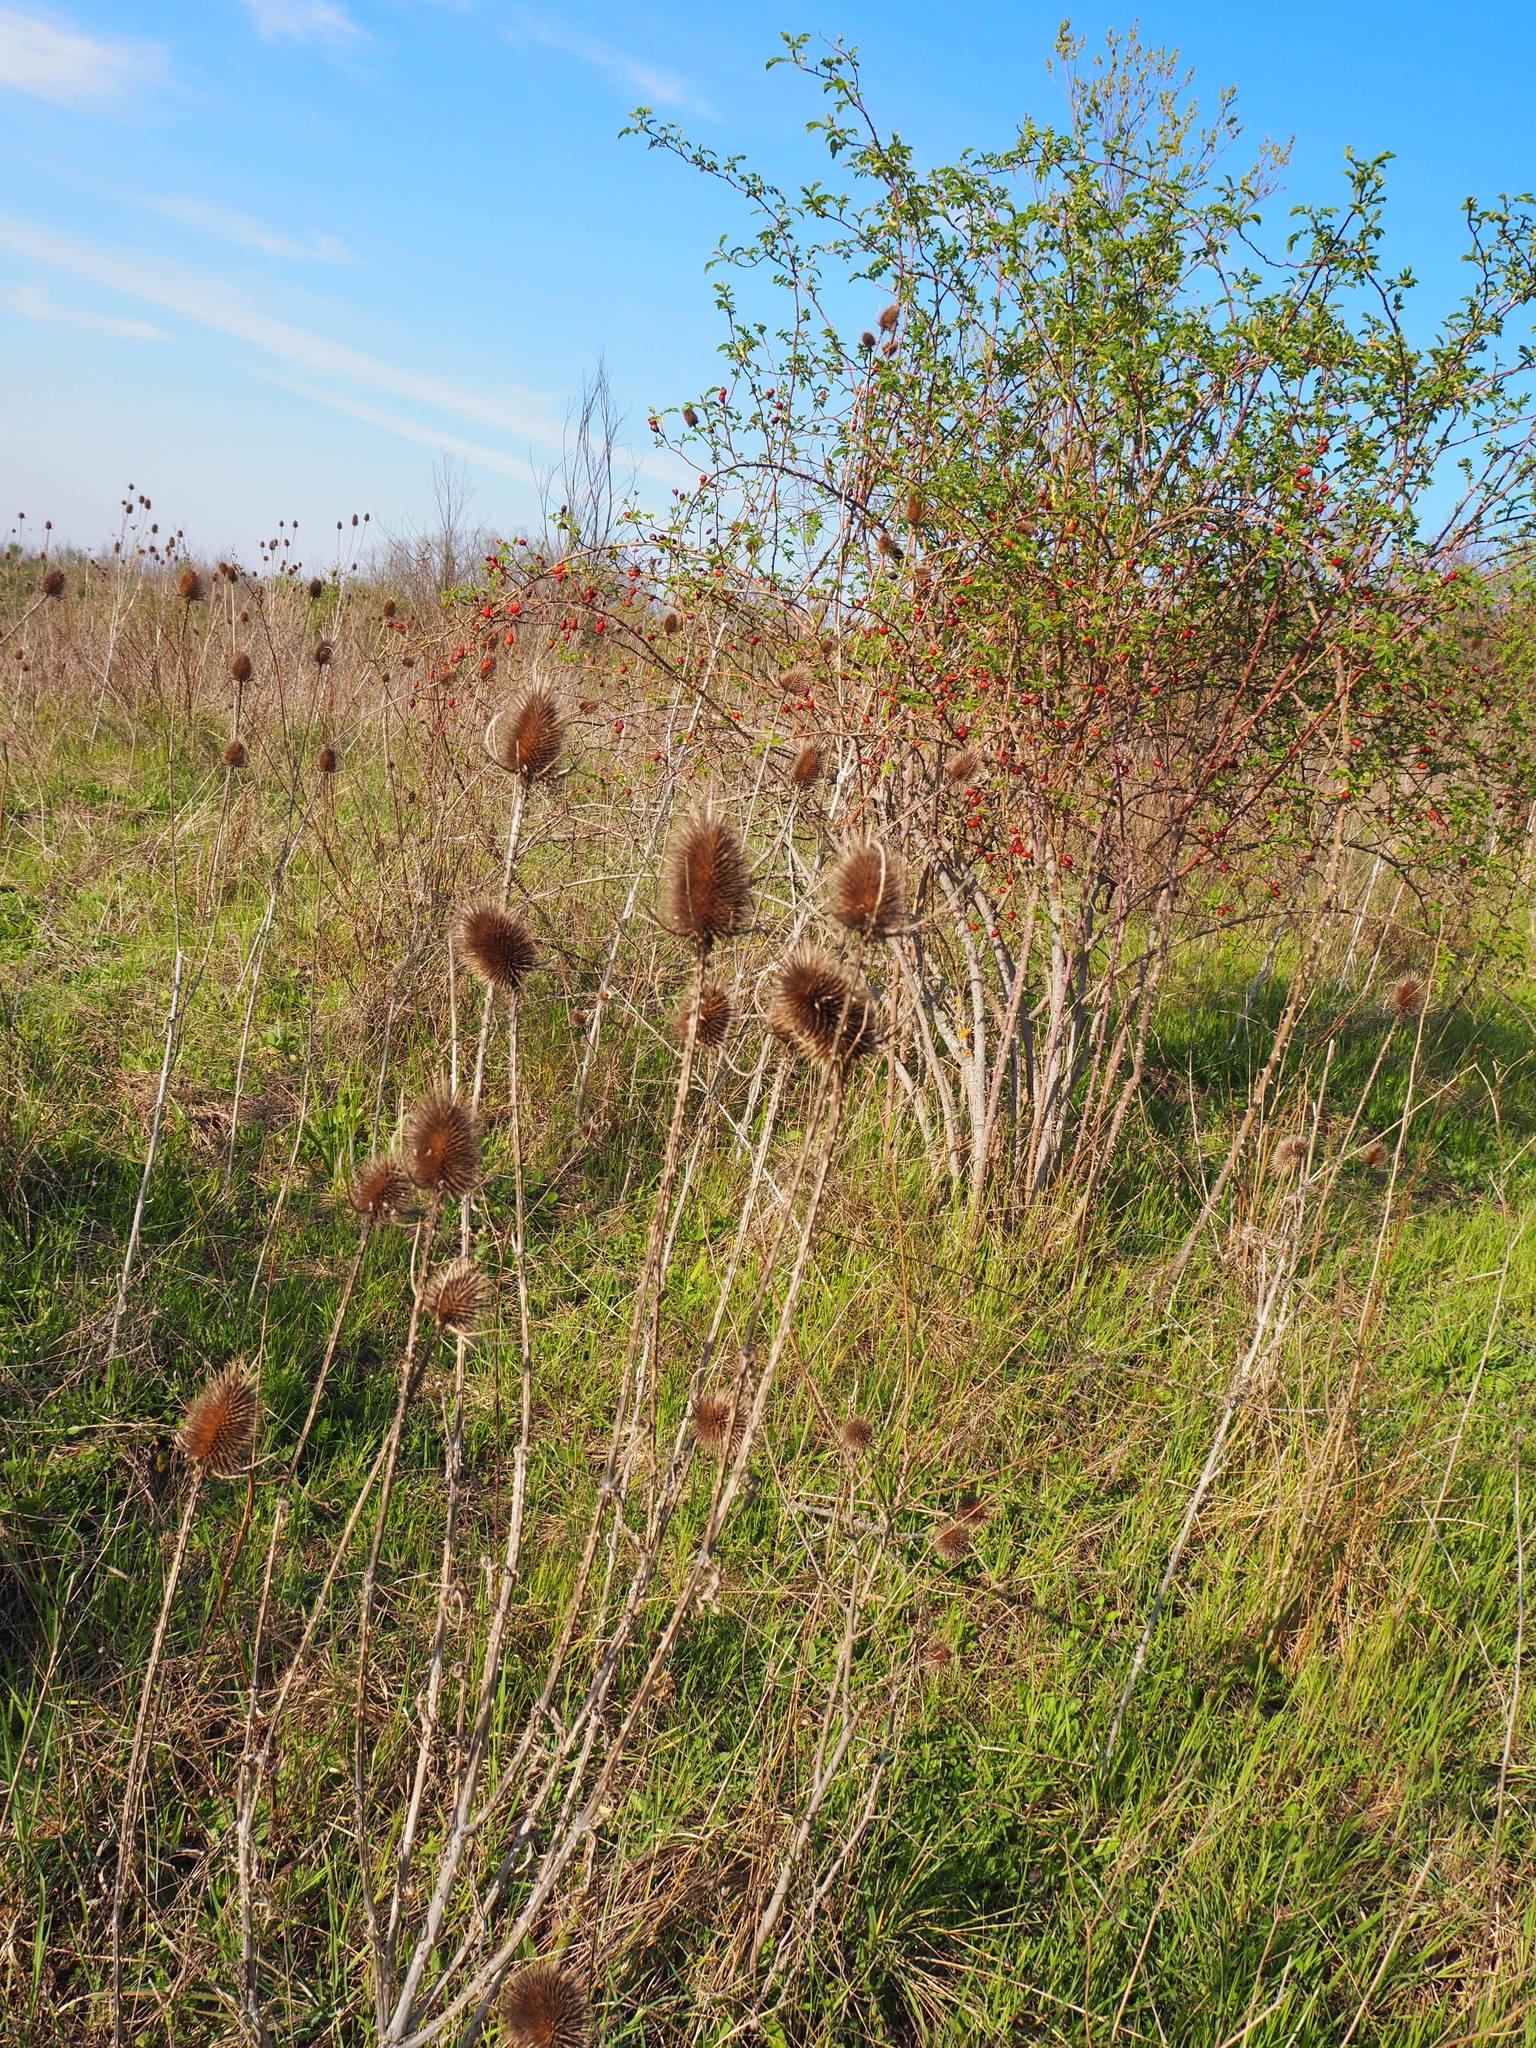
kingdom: Plantae
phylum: Tracheophyta
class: Magnoliopsida
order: Dipsacales
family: Caprifoliaceae
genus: Dipsacus
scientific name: Dipsacus fullonum
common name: Teasel
